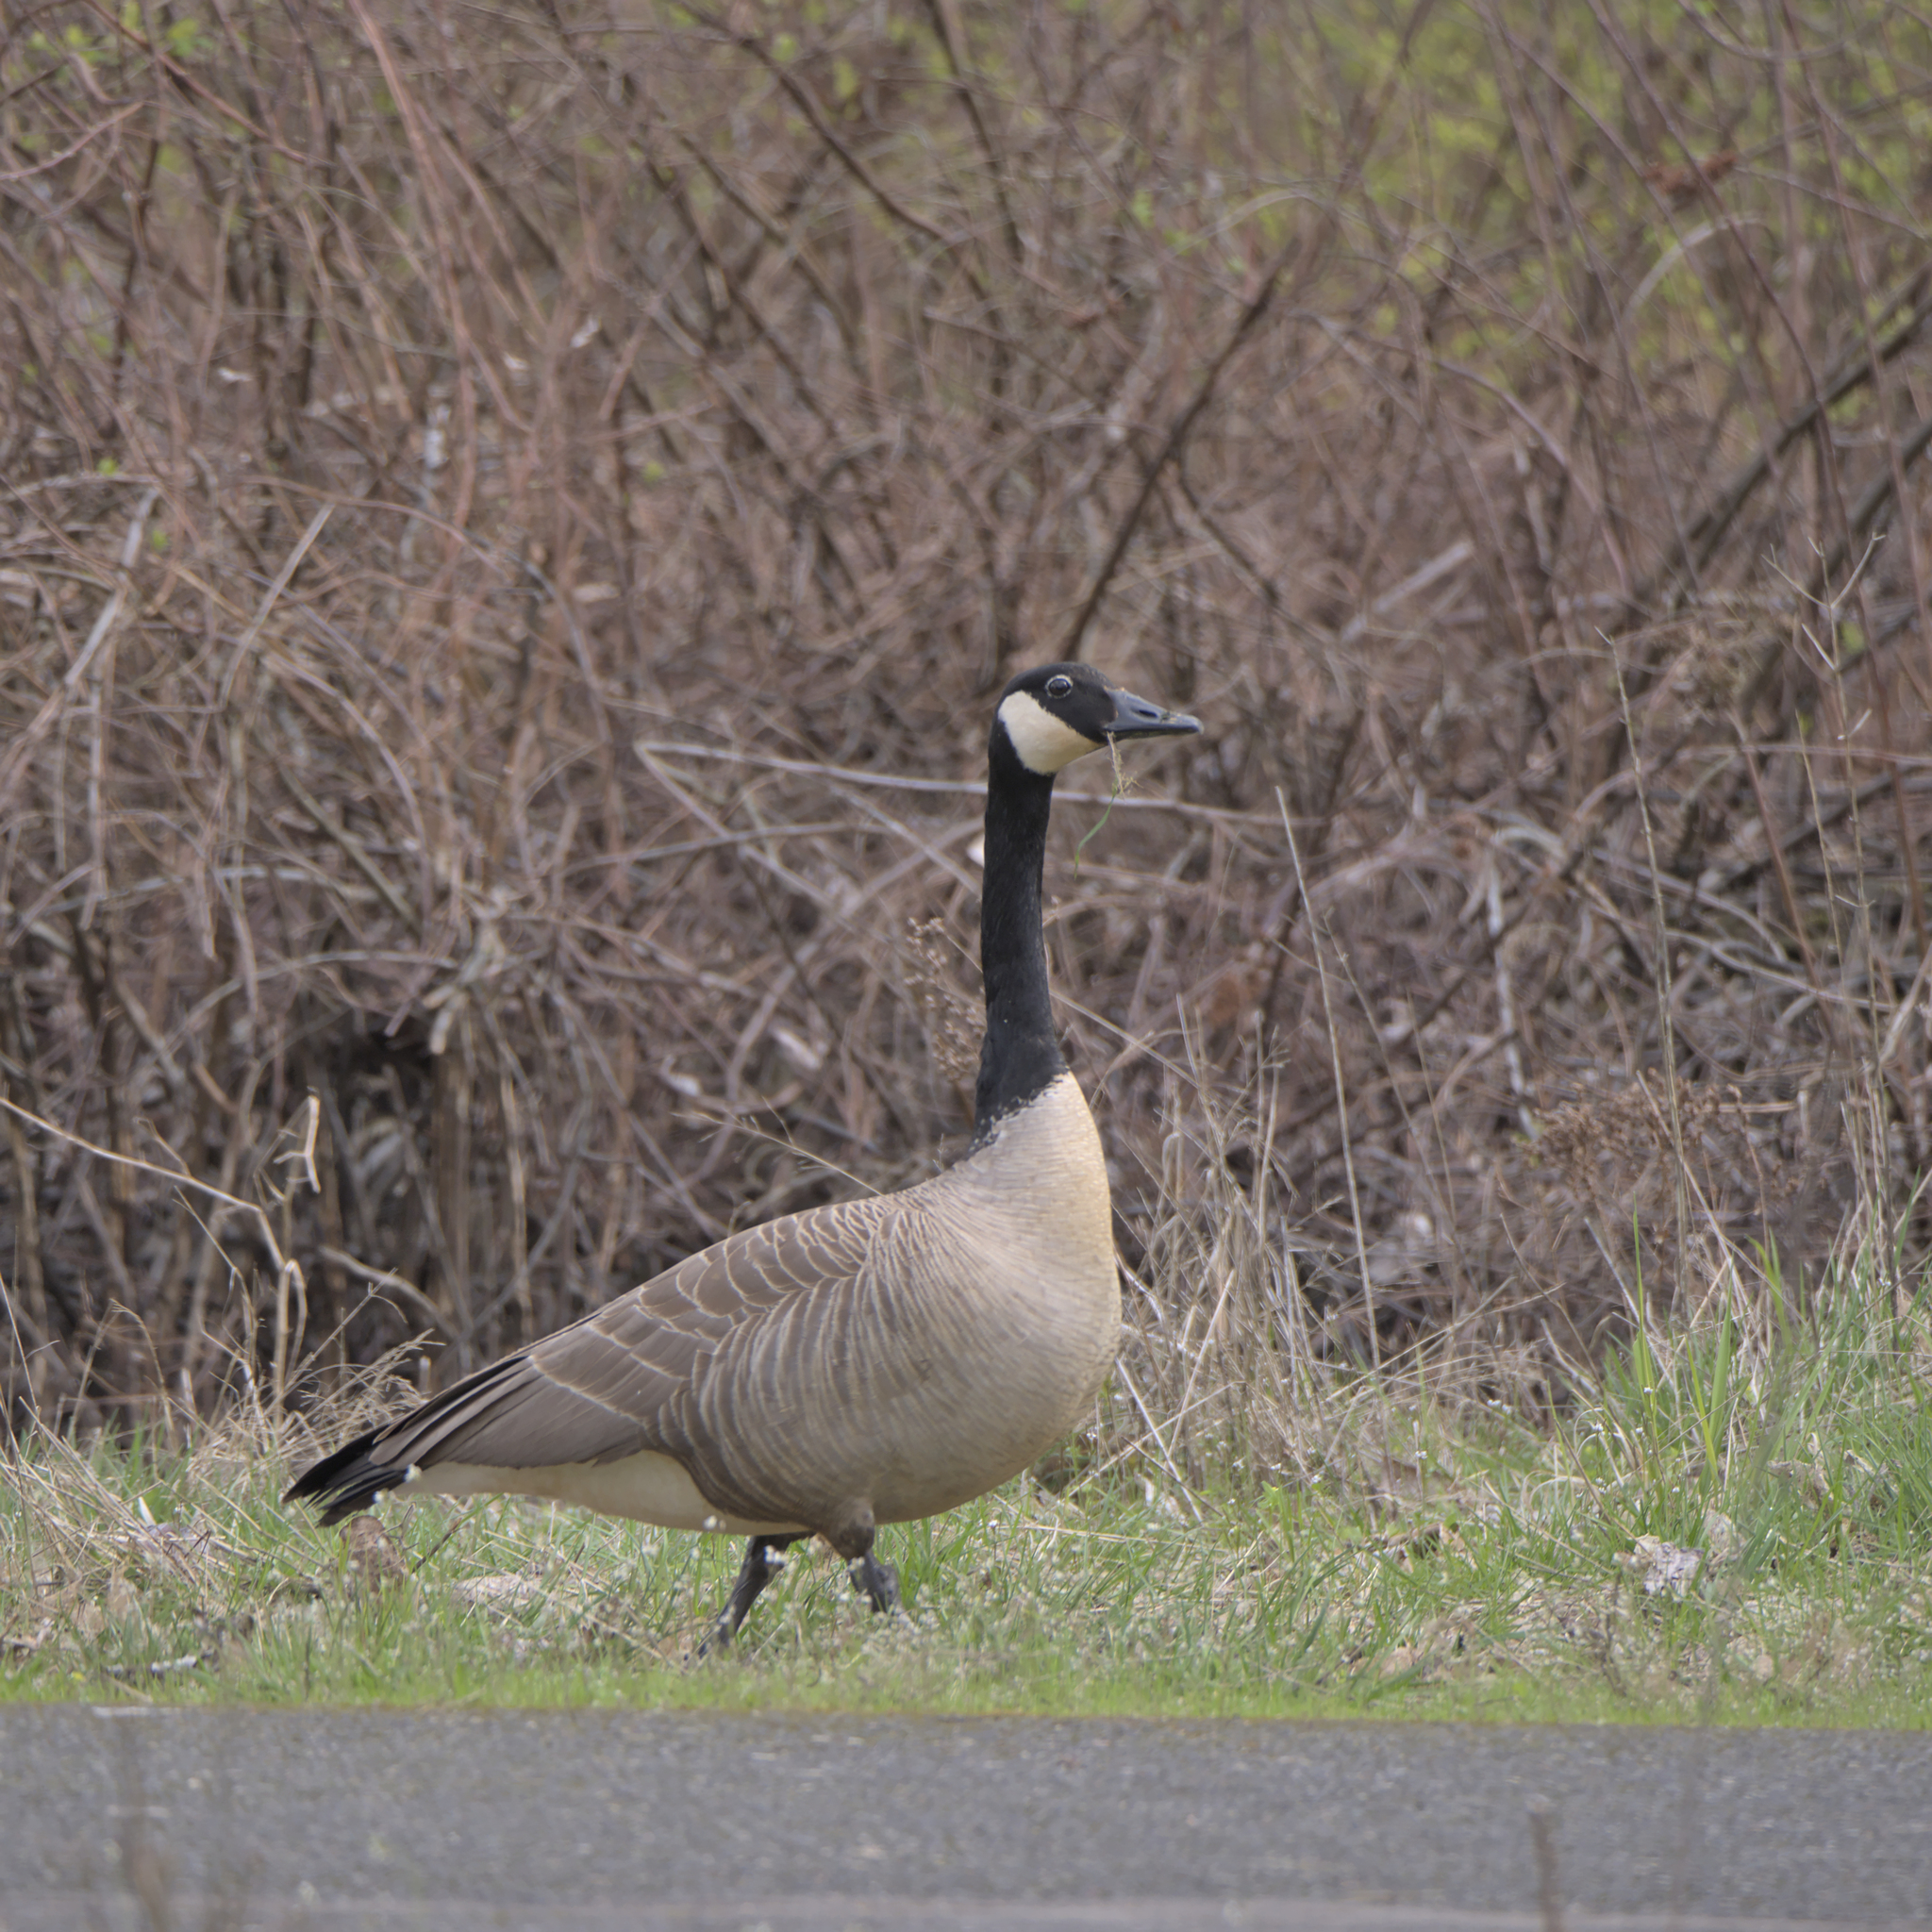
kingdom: Animalia
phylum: Chordata
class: Aves
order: Anseriformes
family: Anatidae
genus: Branta
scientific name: Branta canadensis
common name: Canada goose
